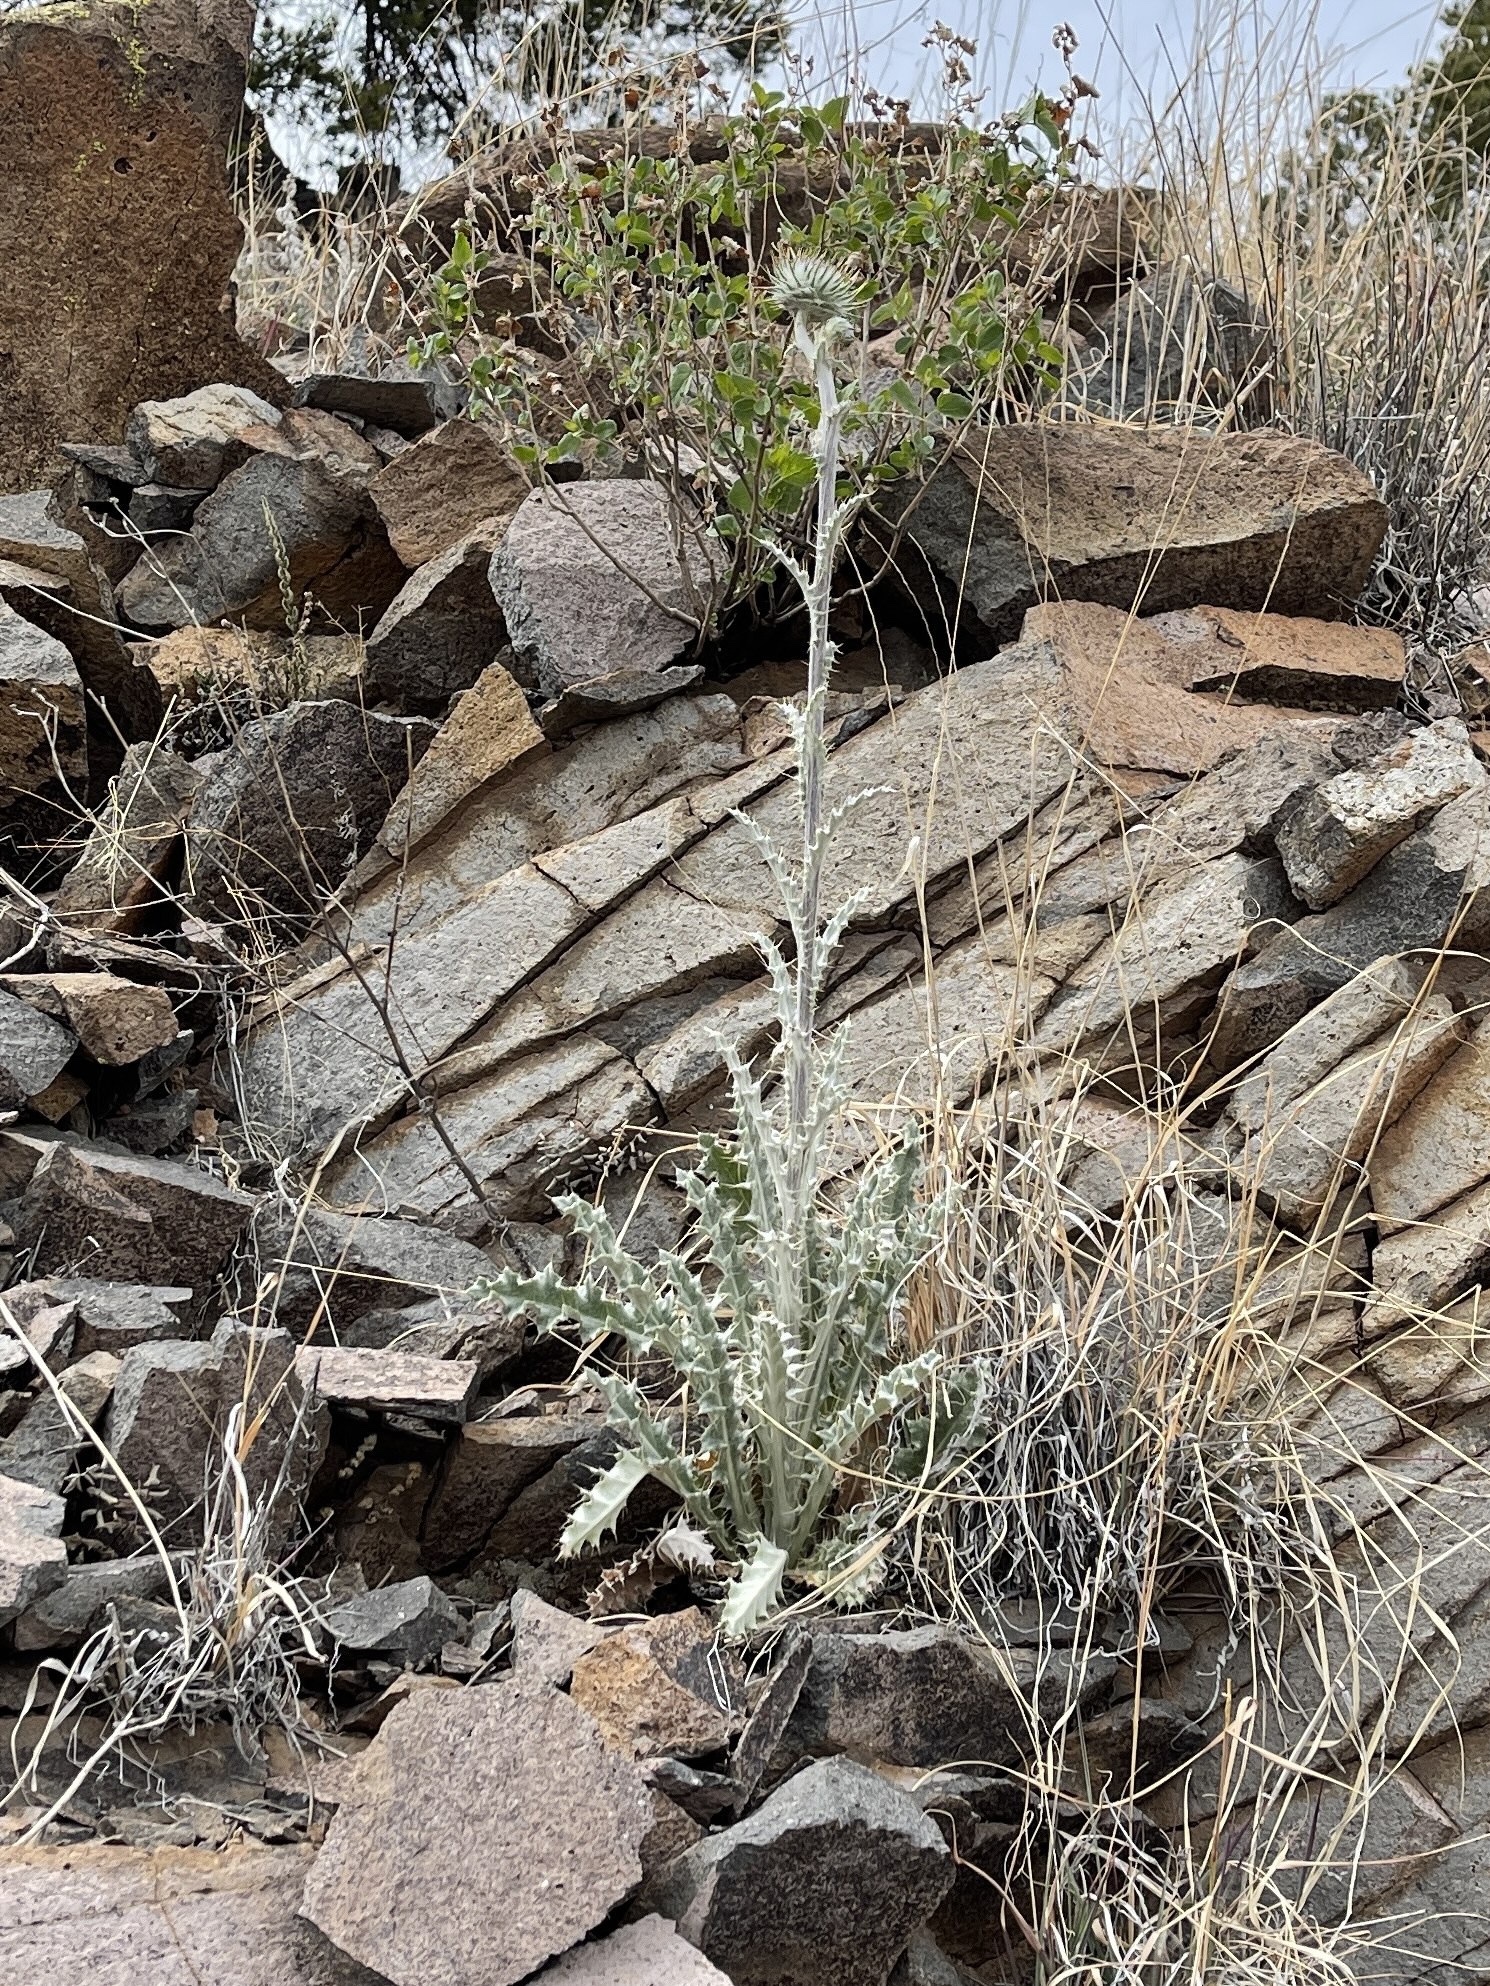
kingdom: Plantae
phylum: Tracheophyta
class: Magnoliopsida
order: Asterales
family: Asteraceae
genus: Cirsium
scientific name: Cirsium neomexicanum
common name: New mexico thistle
